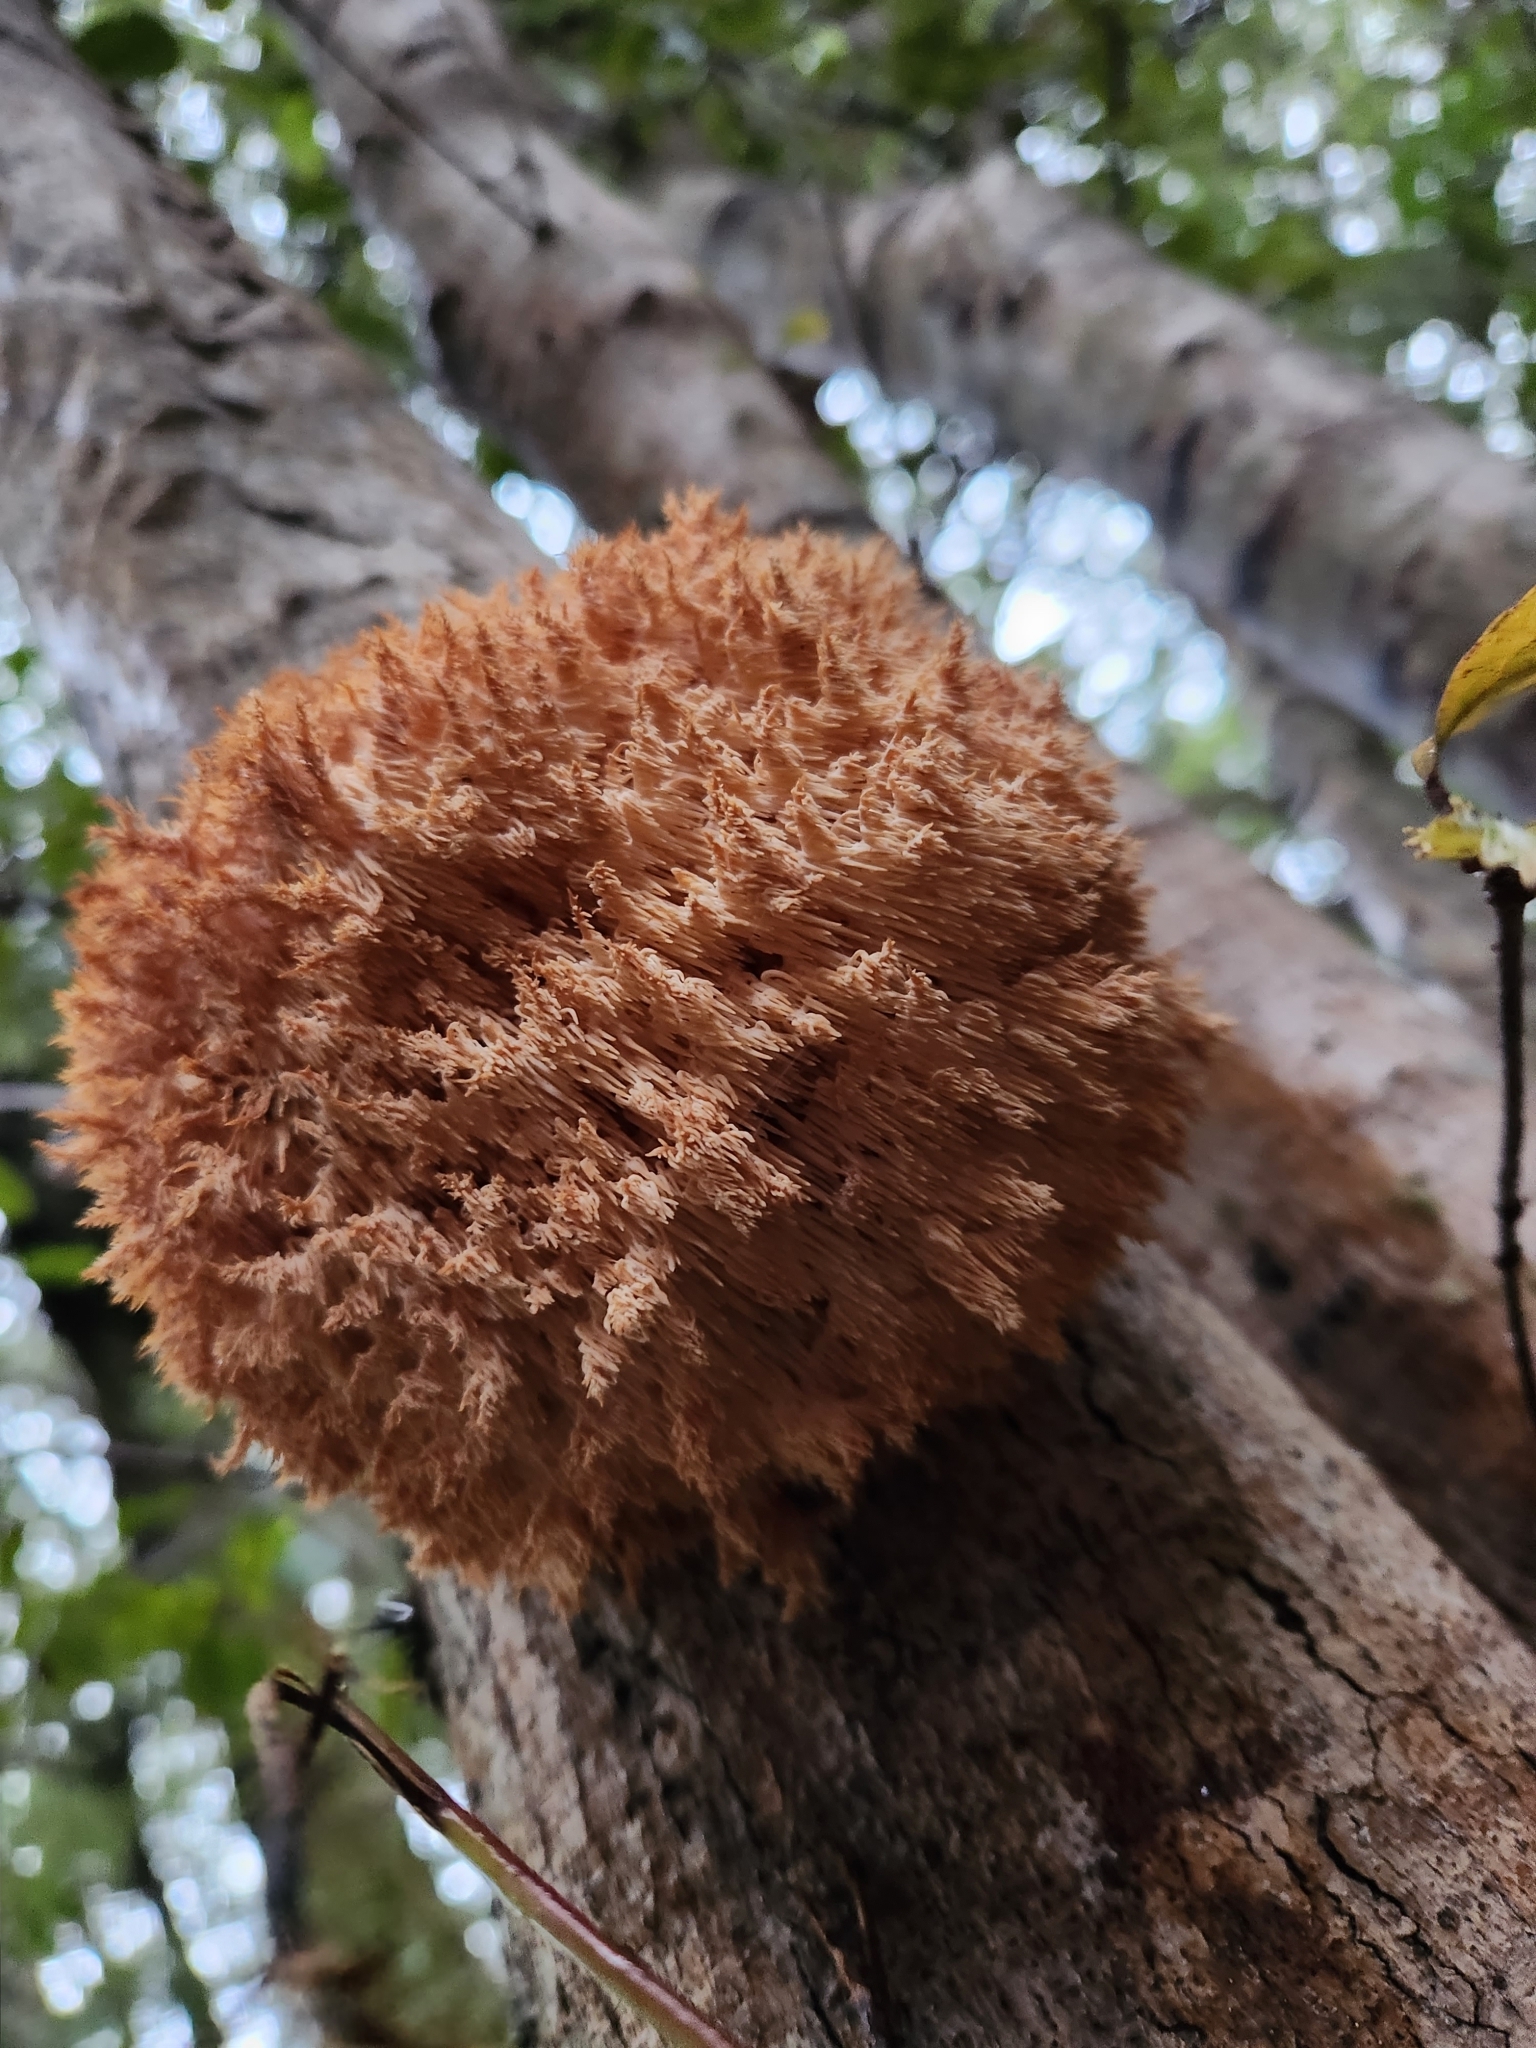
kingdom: Fungi
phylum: Basidiomycota
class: Agaricomycetes
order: Russulales
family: Hericiaceae
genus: Hericium
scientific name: Hericium novae-zealandiae
